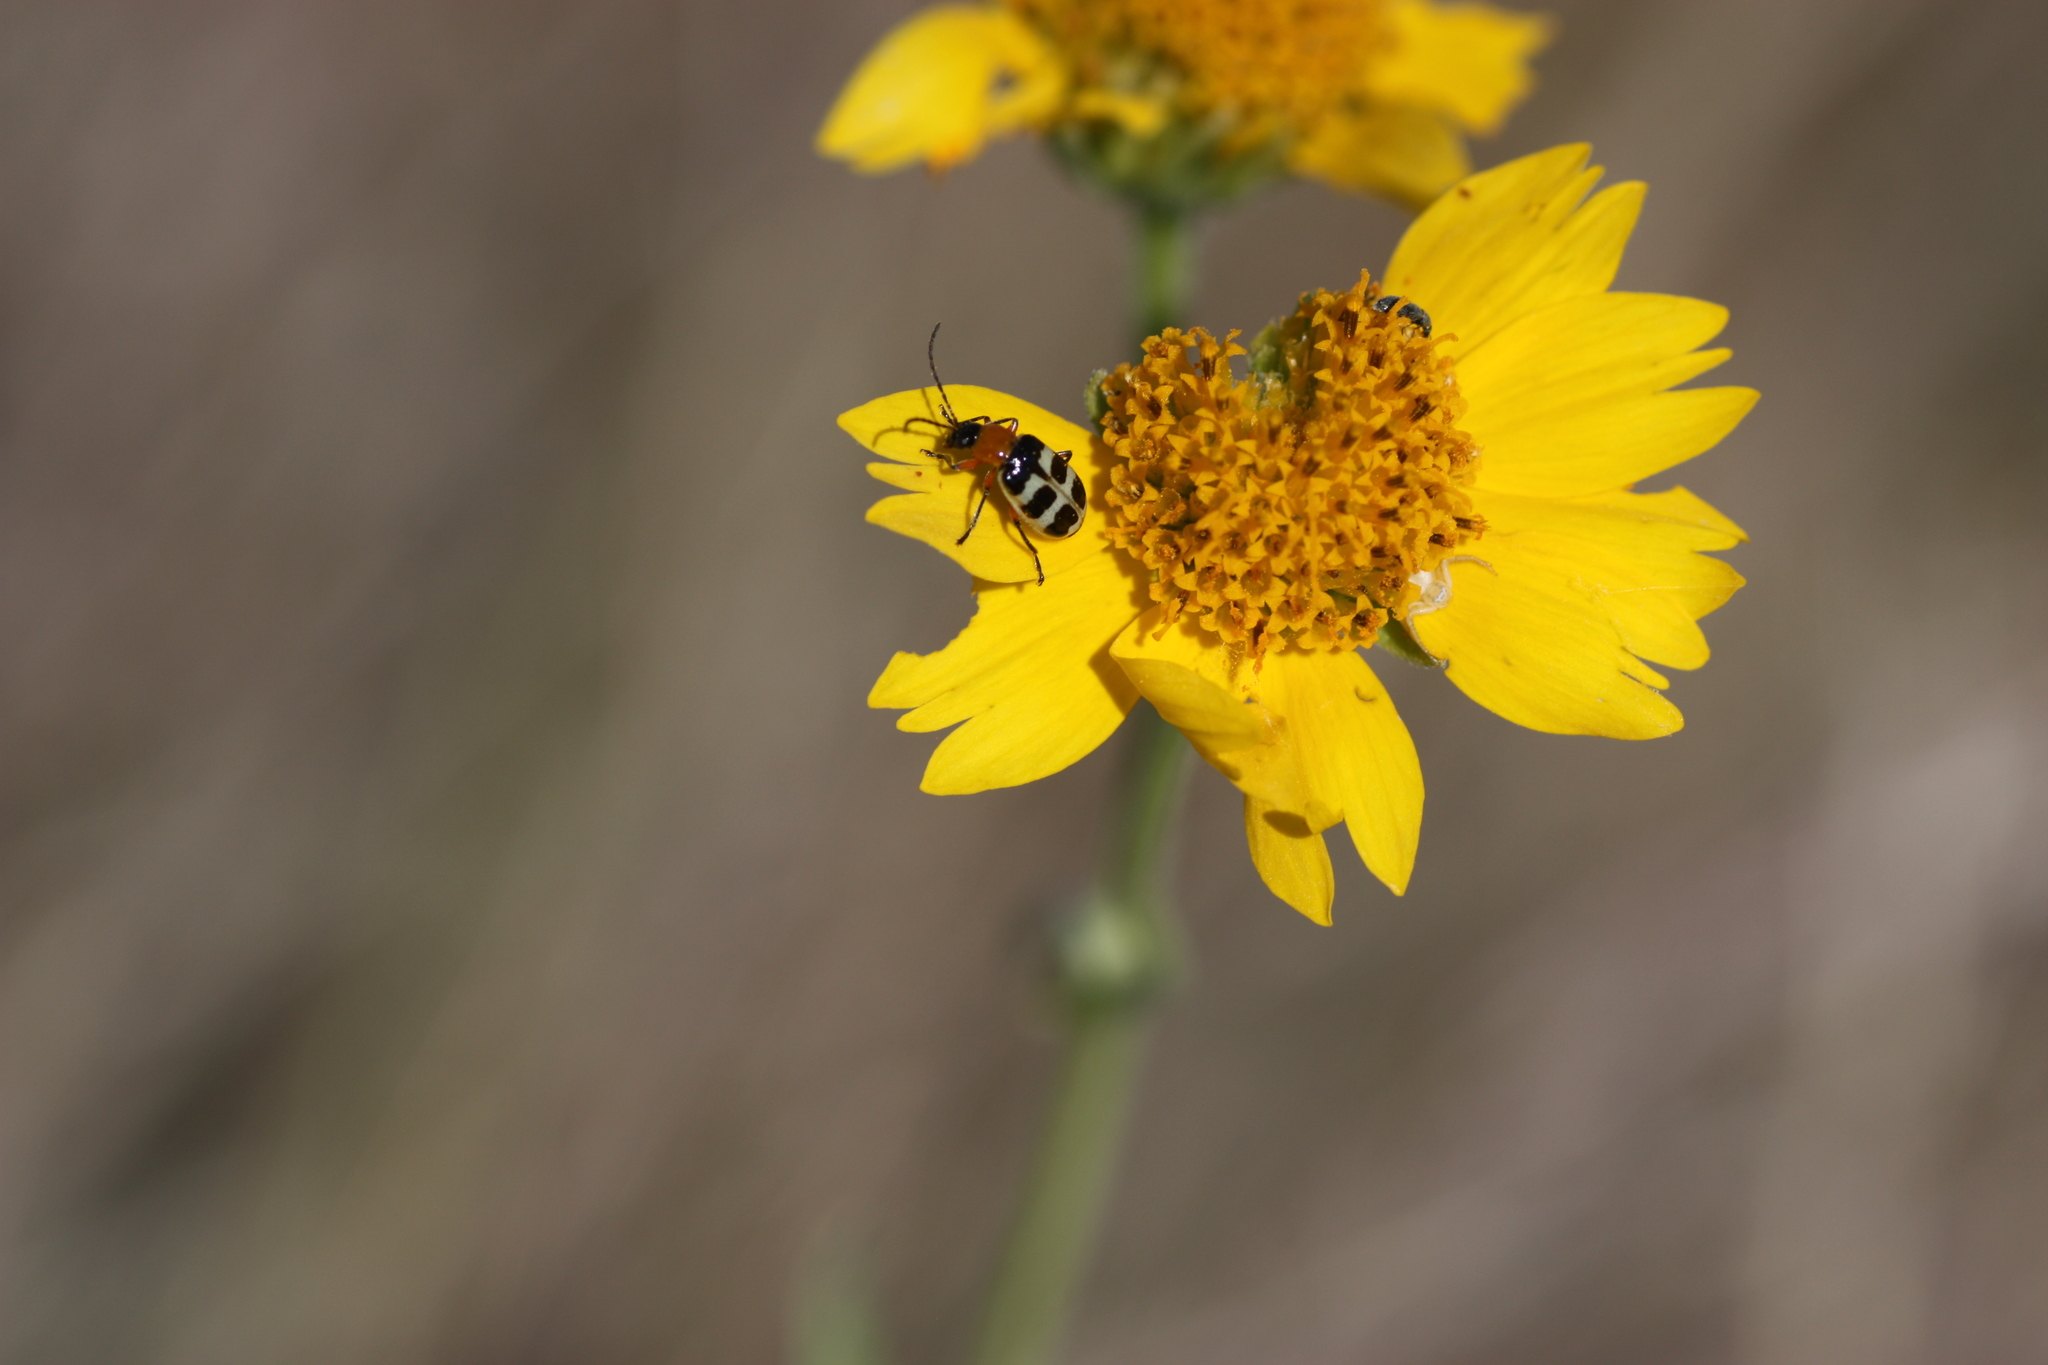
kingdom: Animalia
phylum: Arthropoda
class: Insecta
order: Coleoptera
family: Chrysomelidae
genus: Paranapiacaba
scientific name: Paranapiacaba tricincta
